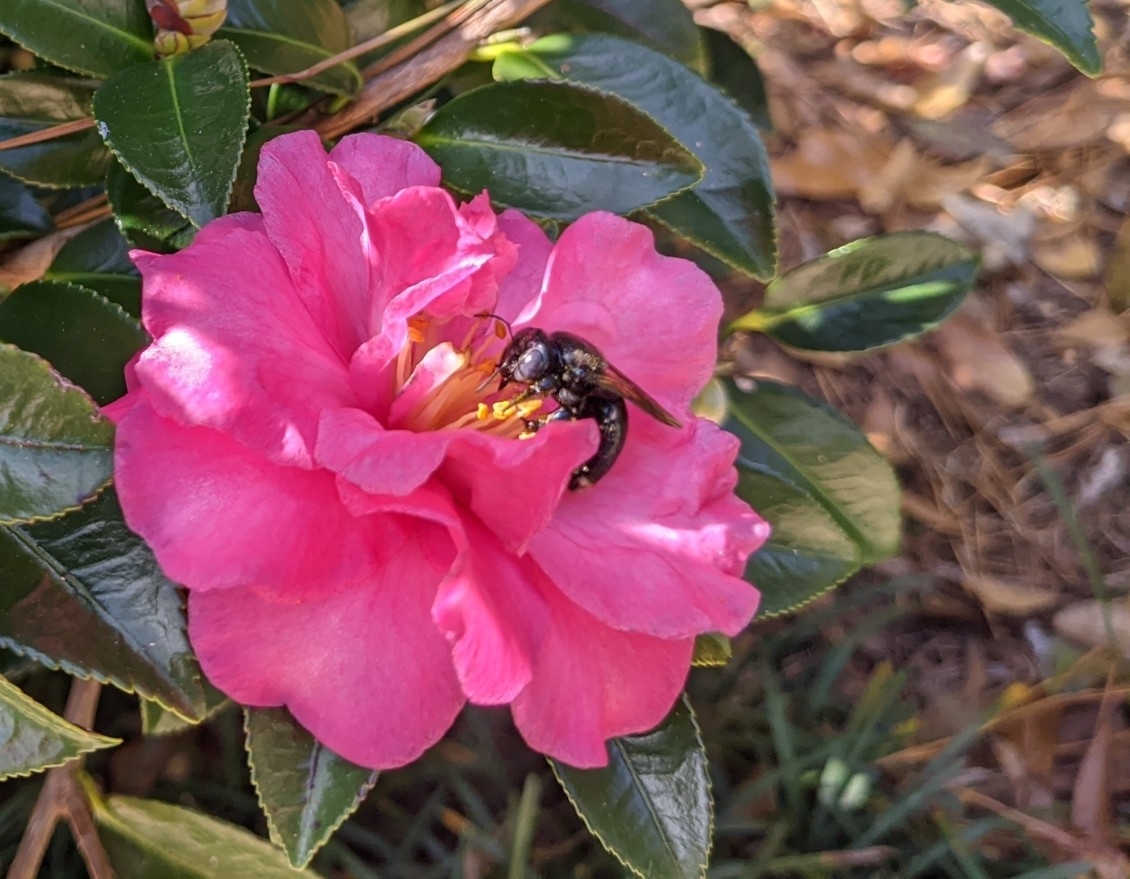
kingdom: Animalia
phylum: Arthropoda
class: Insecta
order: Hymenoptera
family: Apidae
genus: Xylocopa
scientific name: Xylocopa micans
